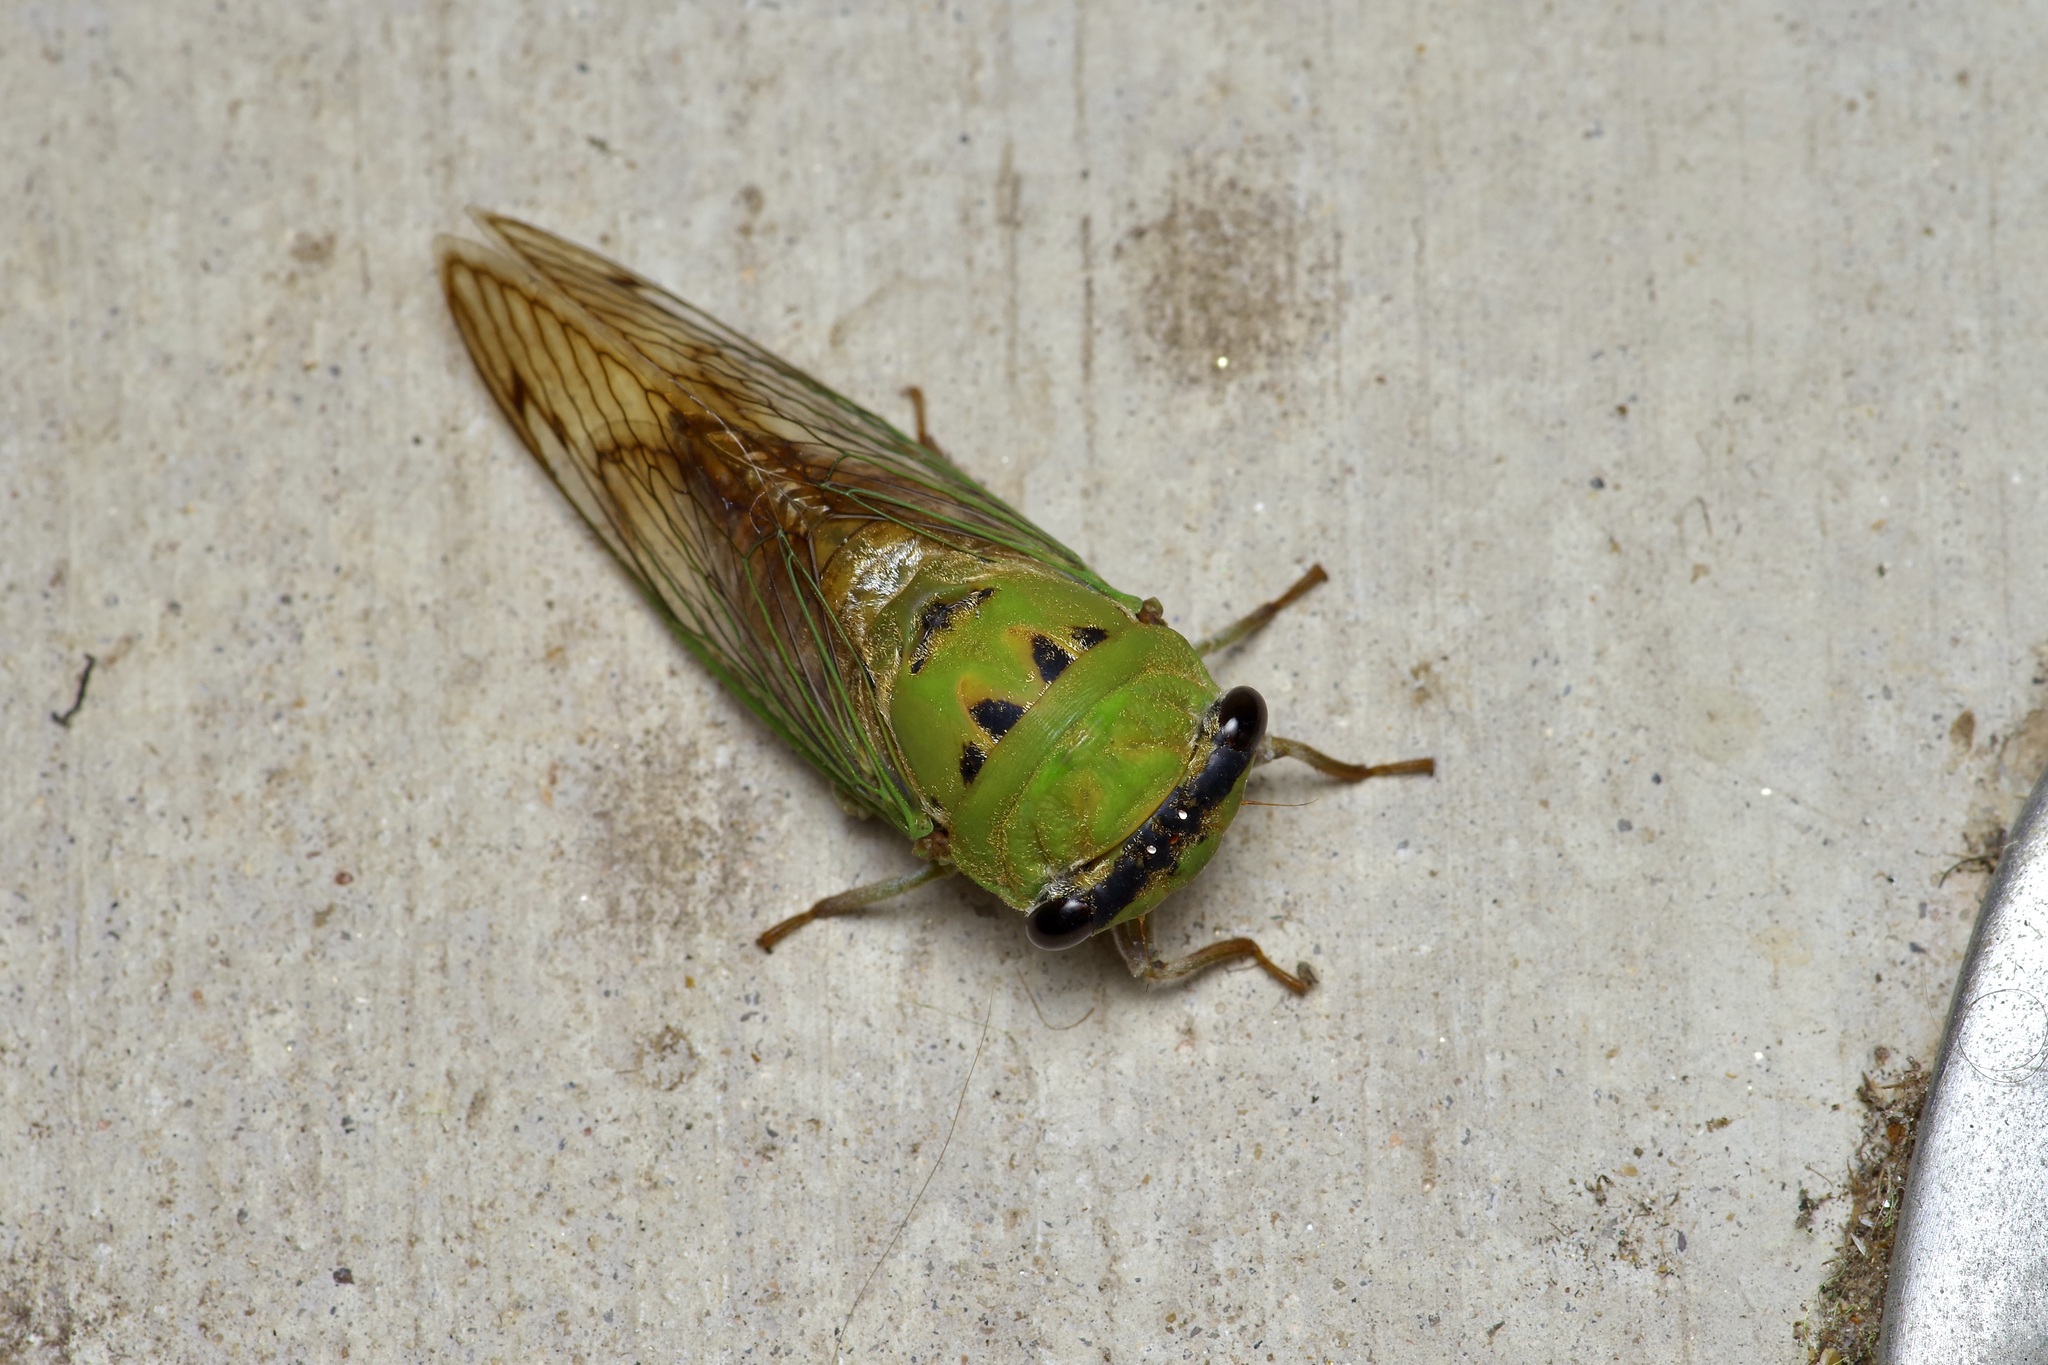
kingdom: Animalia
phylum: Arthropoda
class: Insecta
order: Hemiptera
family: Cicadidae
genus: Neotibicen
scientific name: Neotibicen superbus
